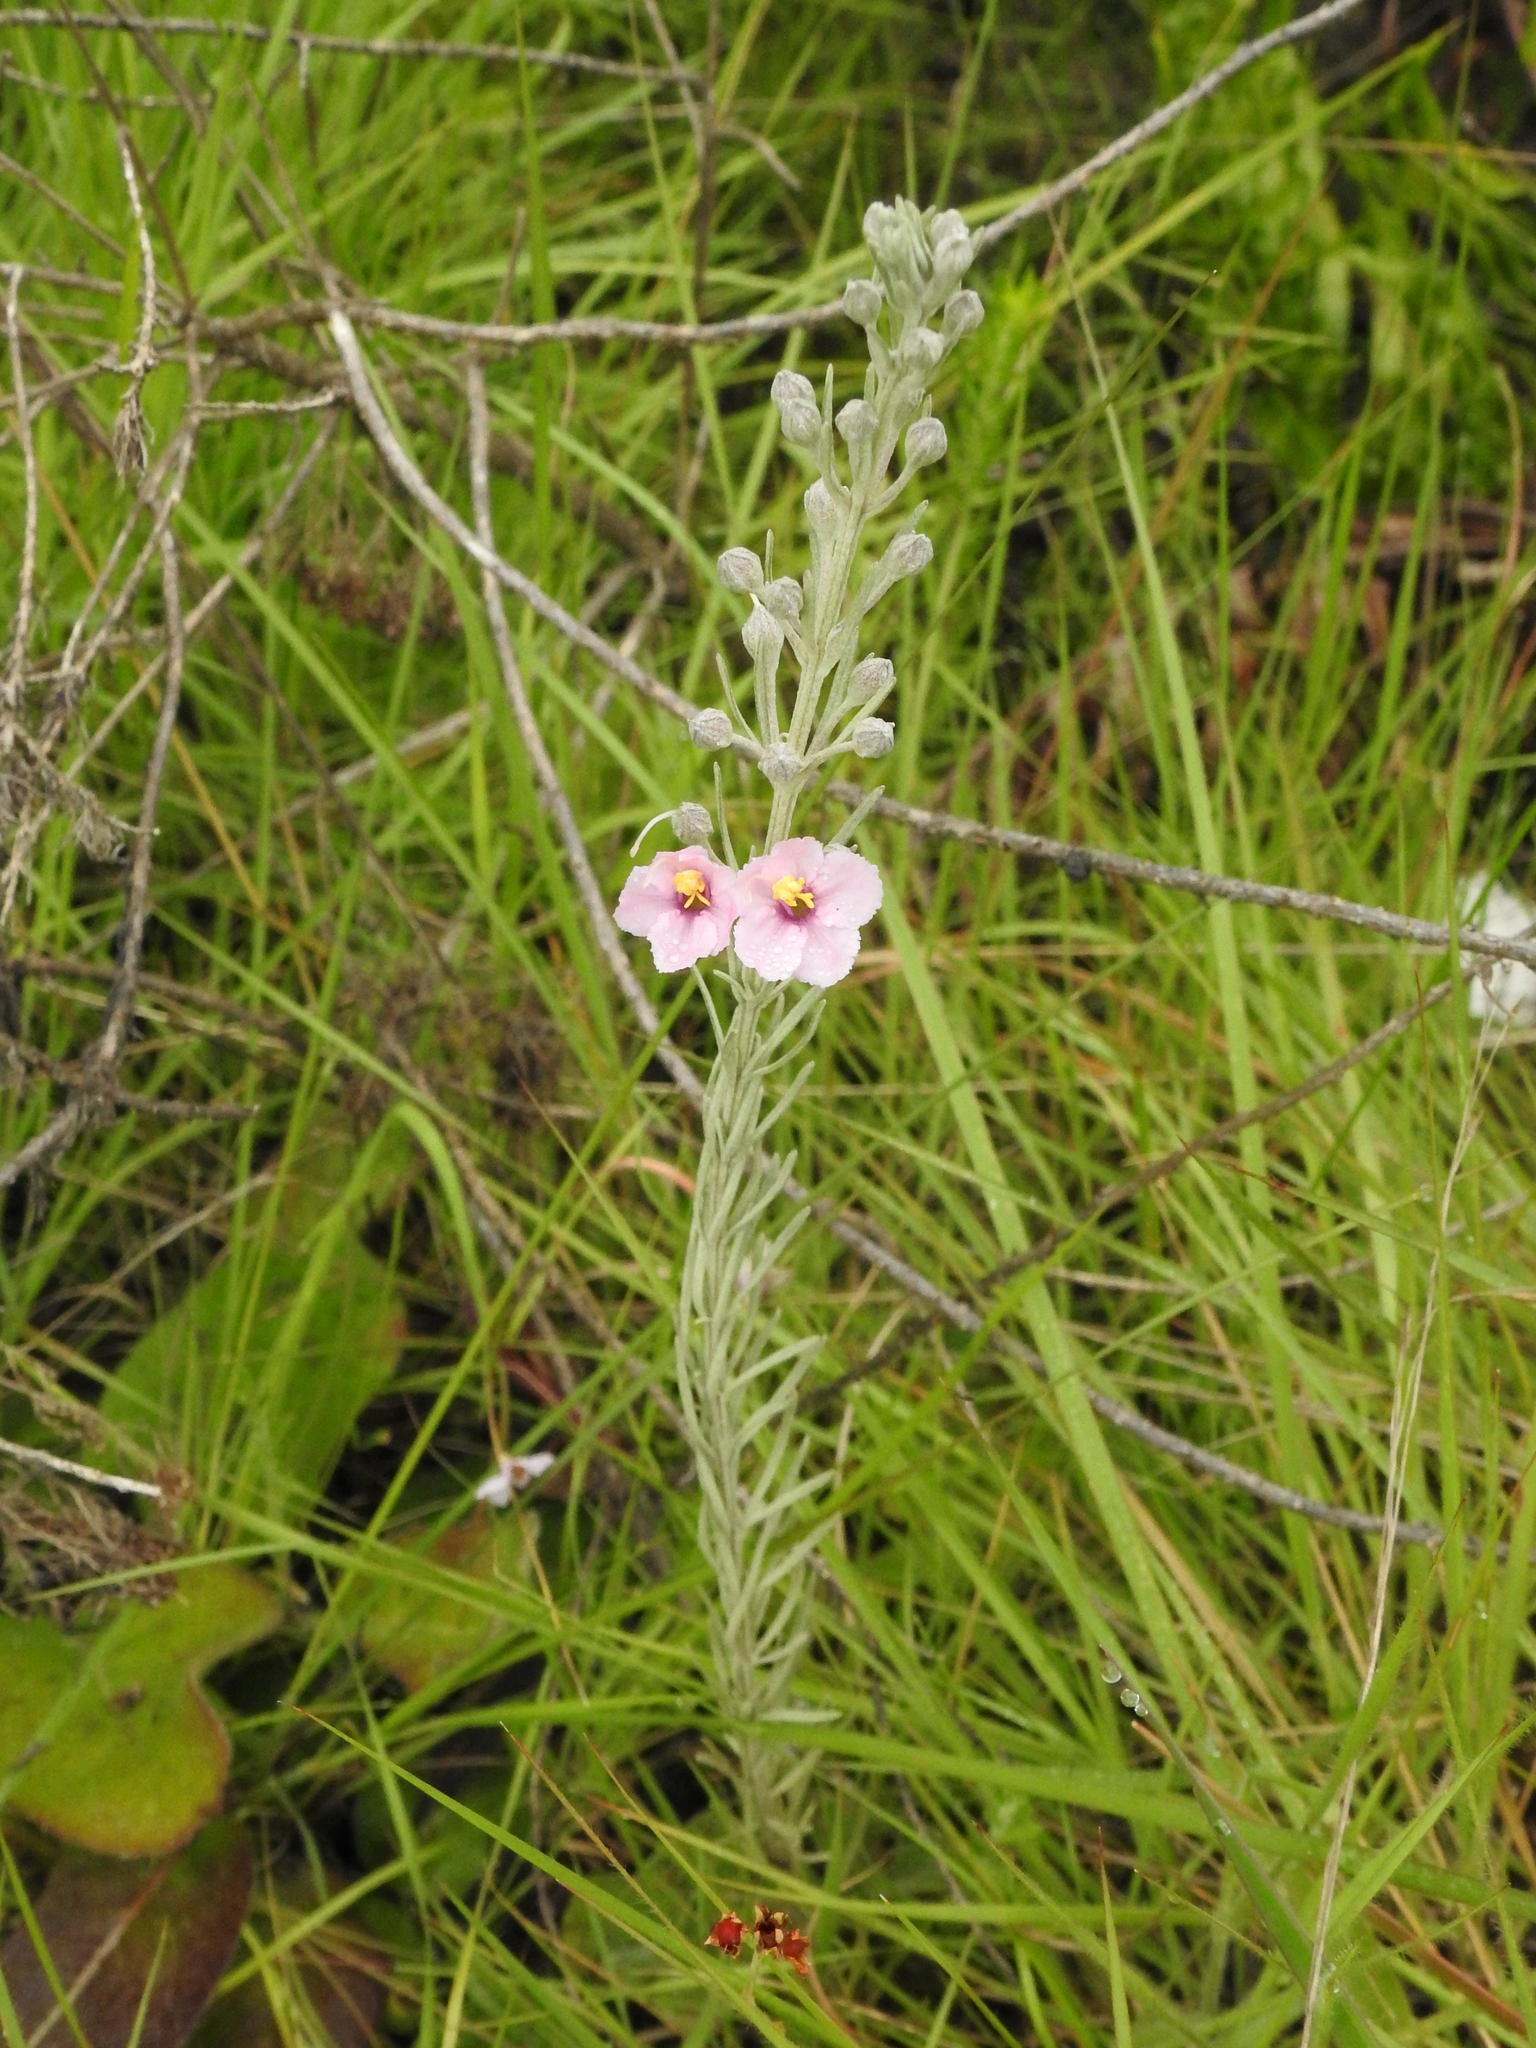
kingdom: Plantae
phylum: Tracheophyta
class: Magnoliopsida
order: Lamiales
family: Orobanchaceae
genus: Sopubia
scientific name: Sopubia cana
